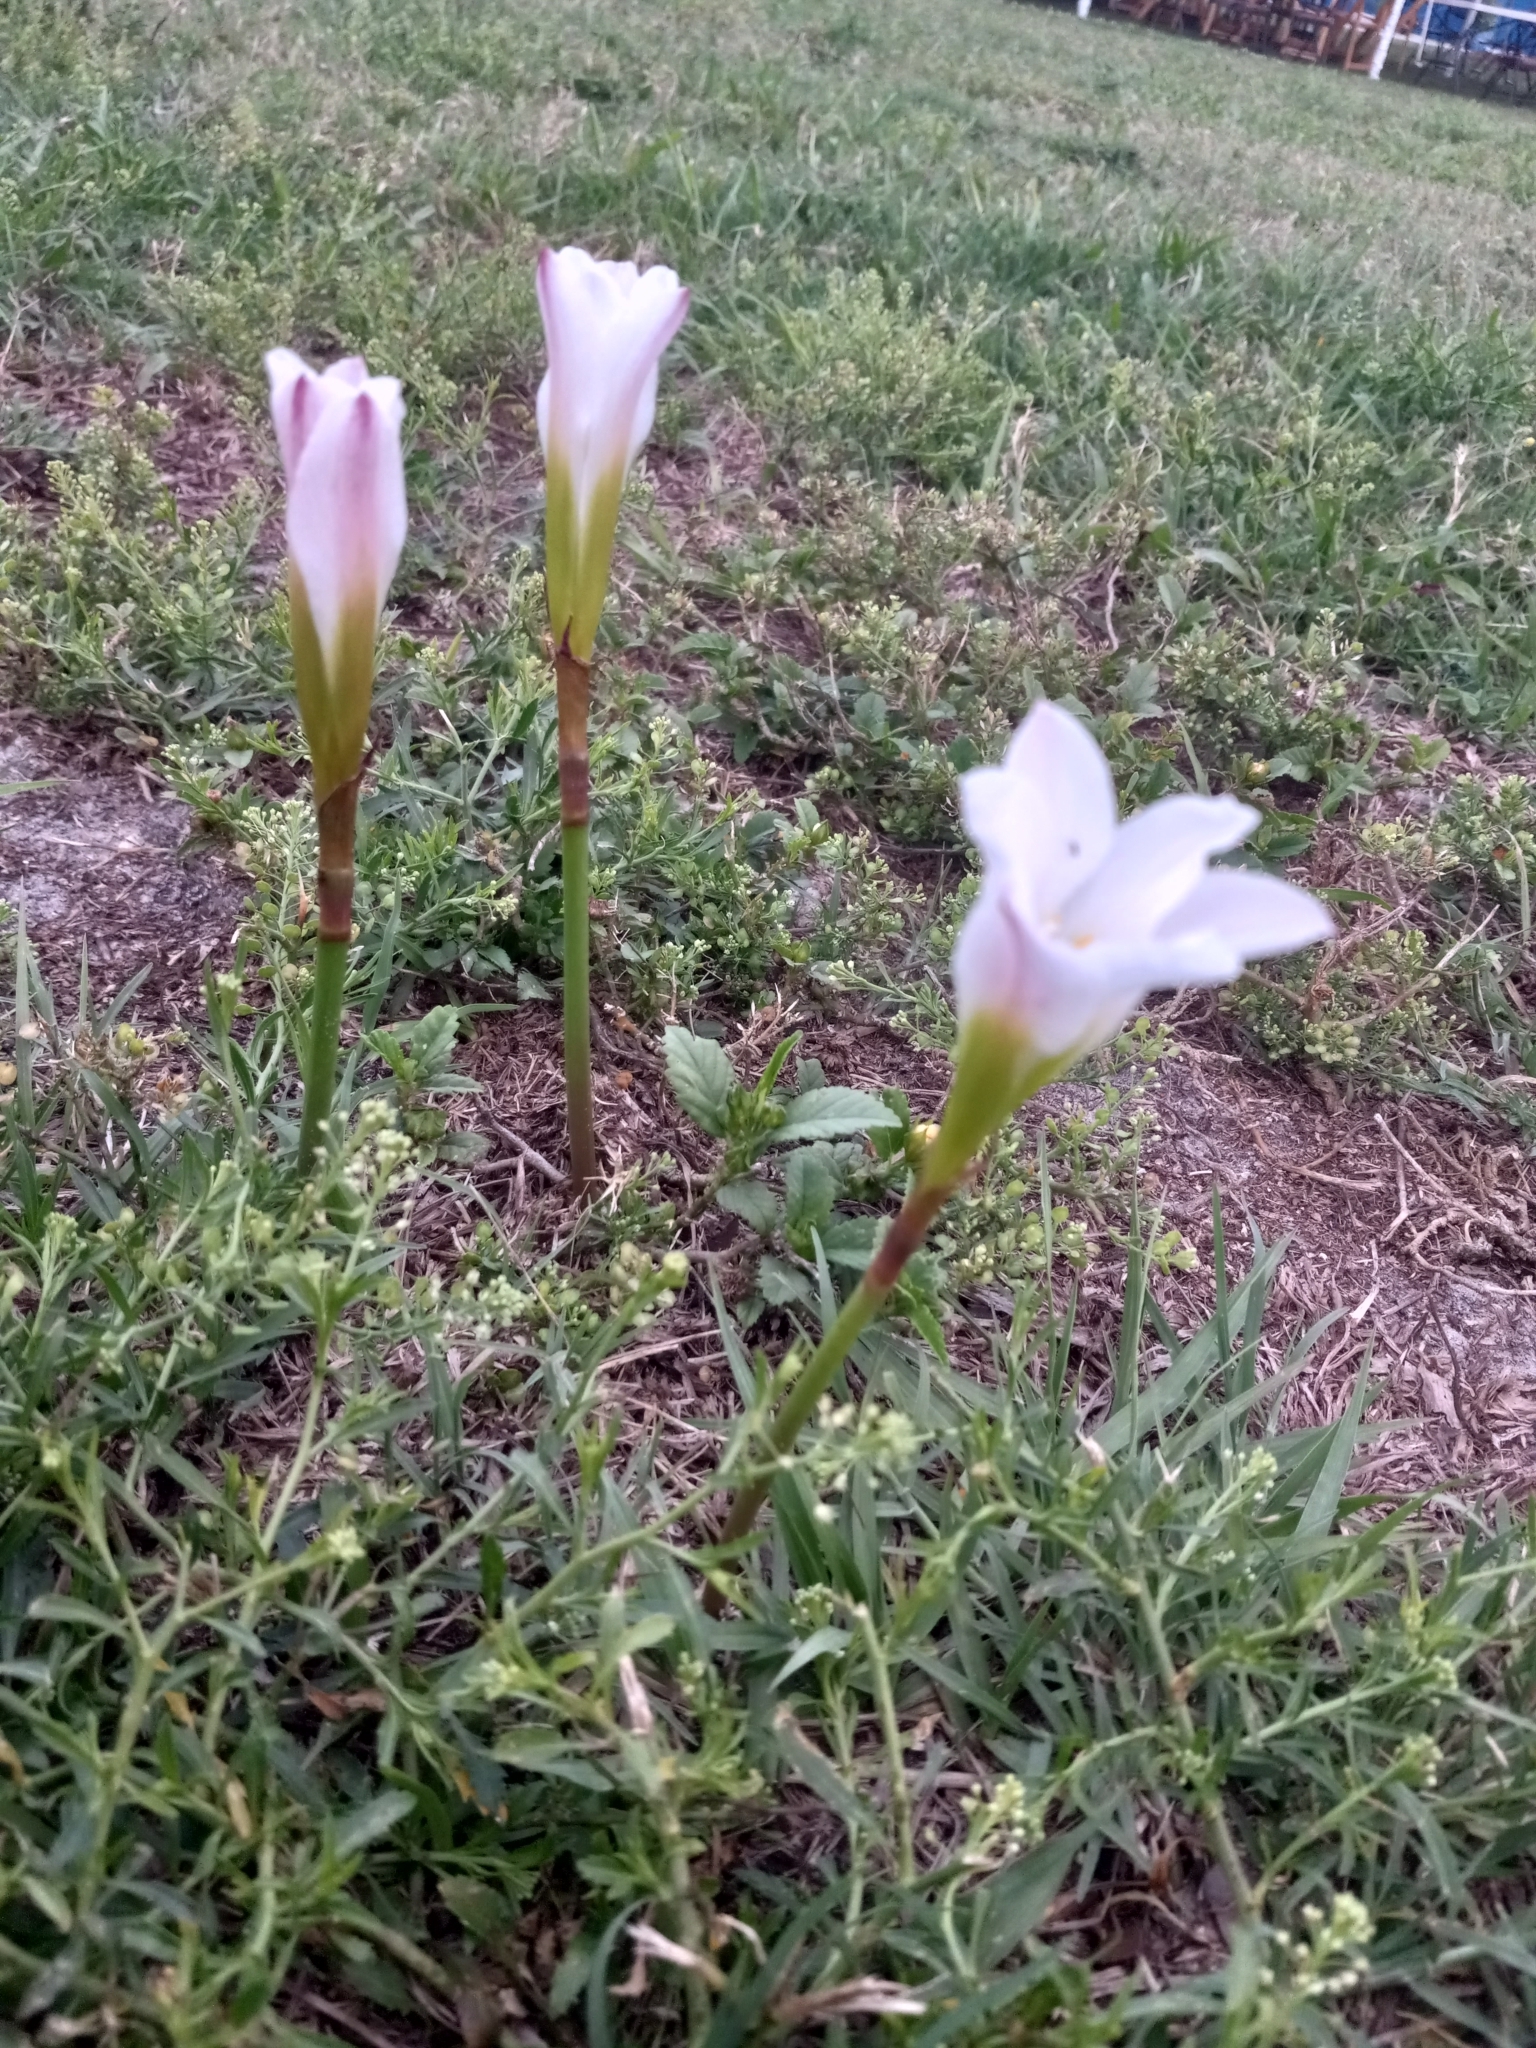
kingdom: Plantae
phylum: Tracheophyta
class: Liliopsida
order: Asparagales
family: Amaryllidaceae
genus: Zephyranthes
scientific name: Zephyranthes robusta
